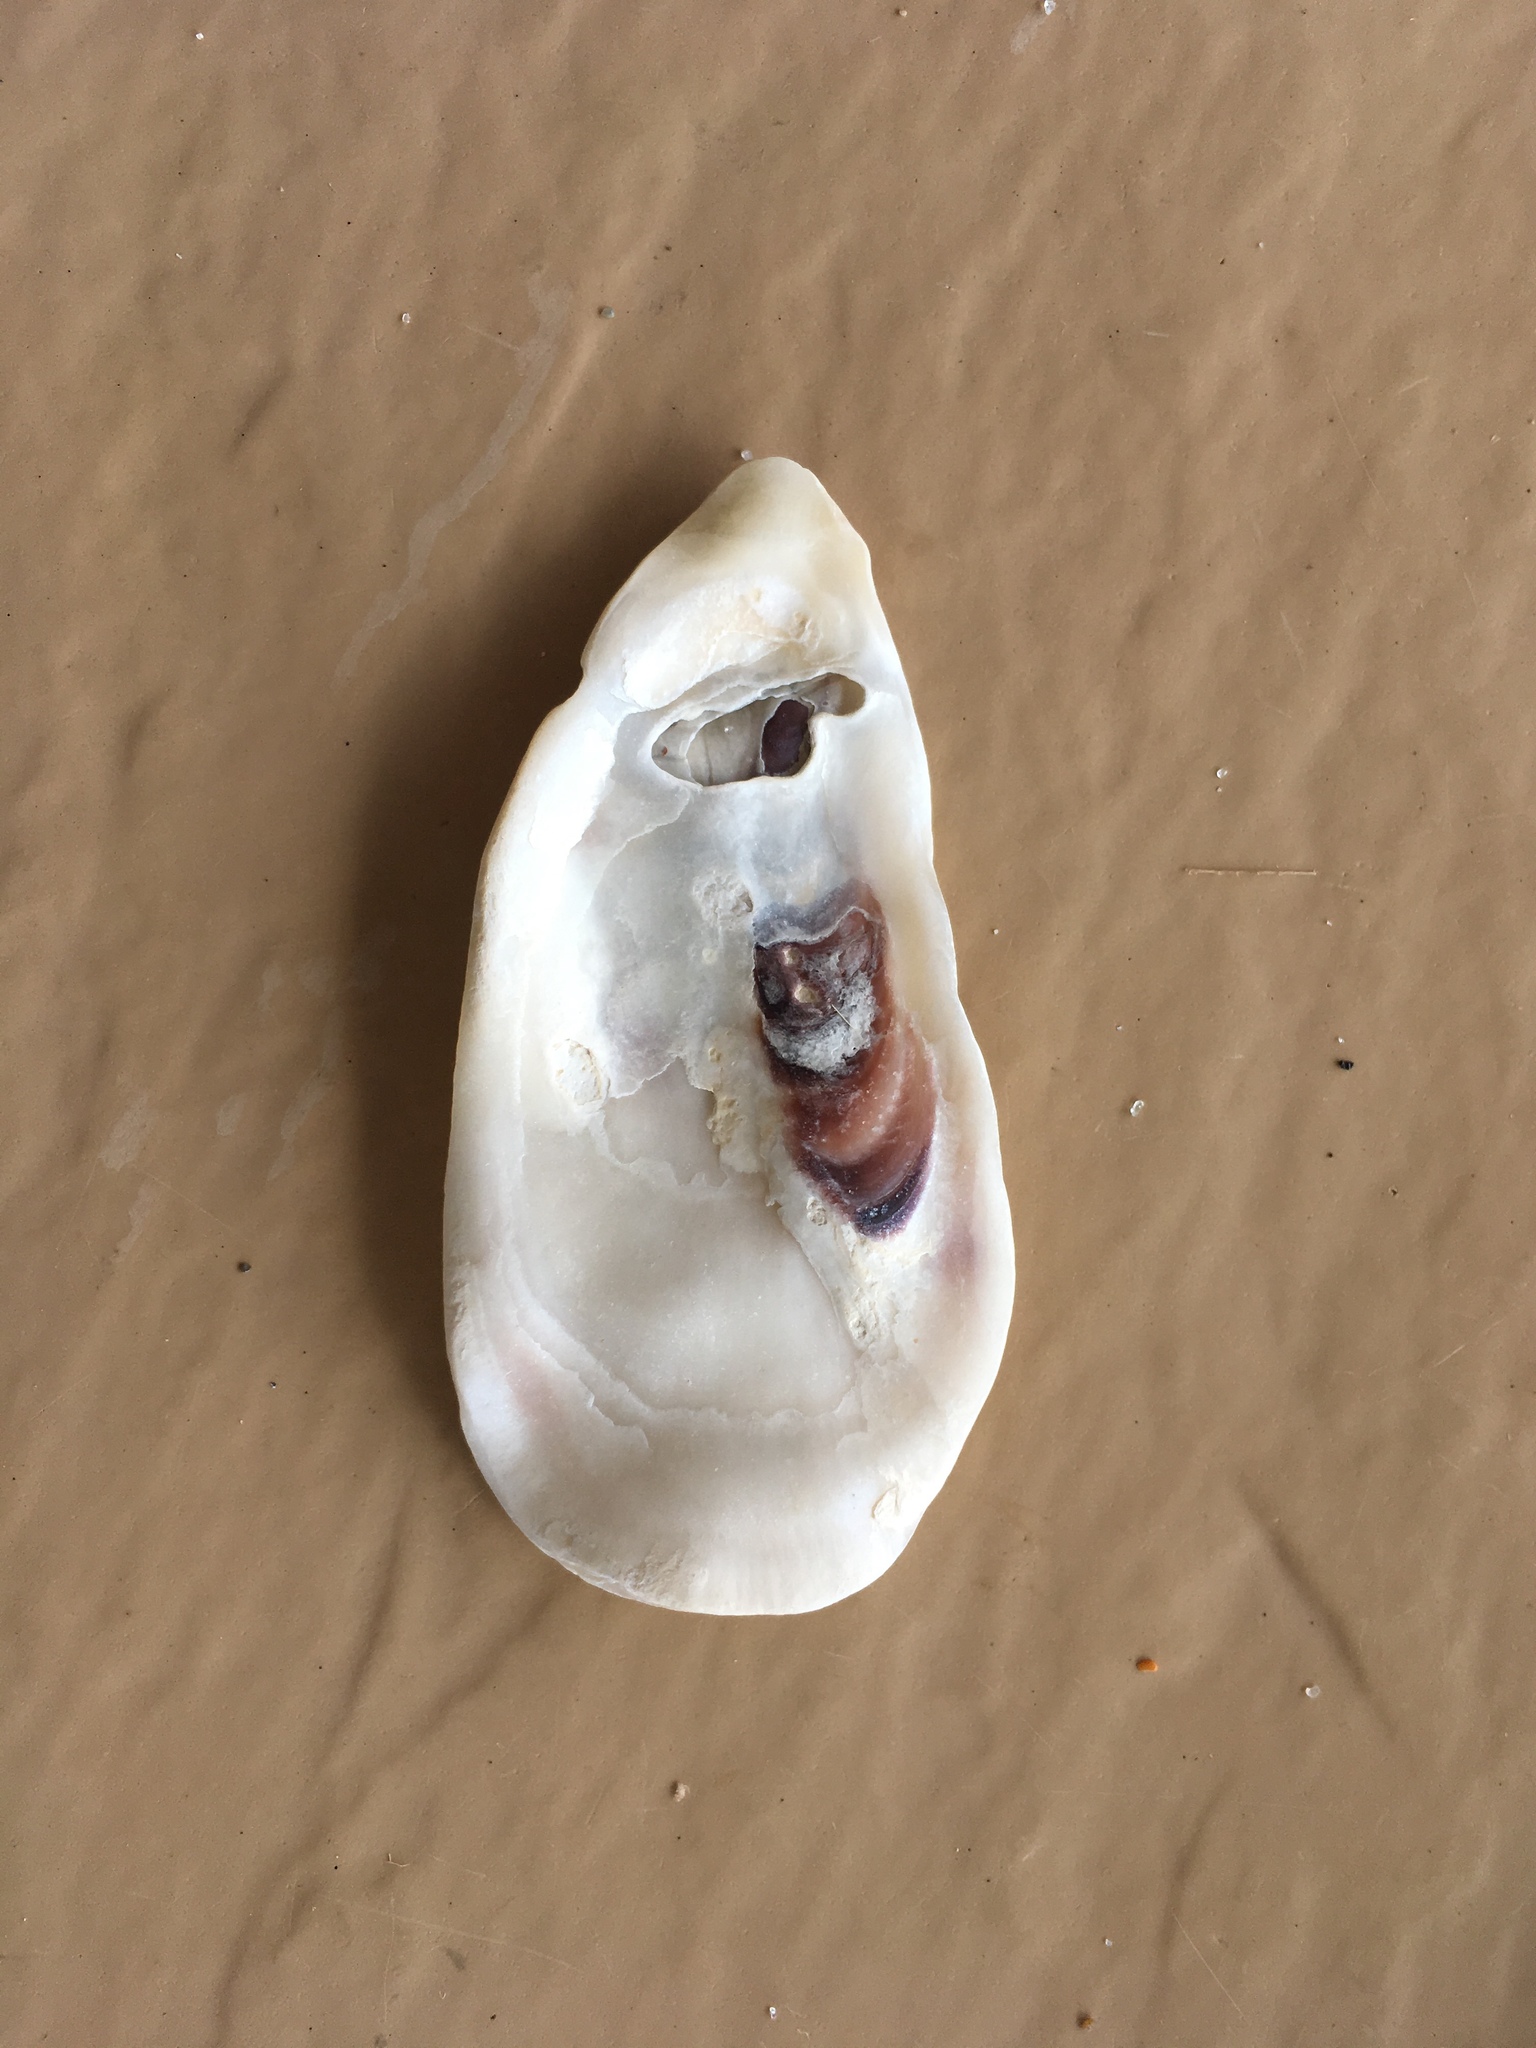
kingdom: Animalia
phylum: Mollusca
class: Bivalvia
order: Ostreida
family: Ostreidae
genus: Crassostrea
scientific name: Crassostrea virginica
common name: American oyster
